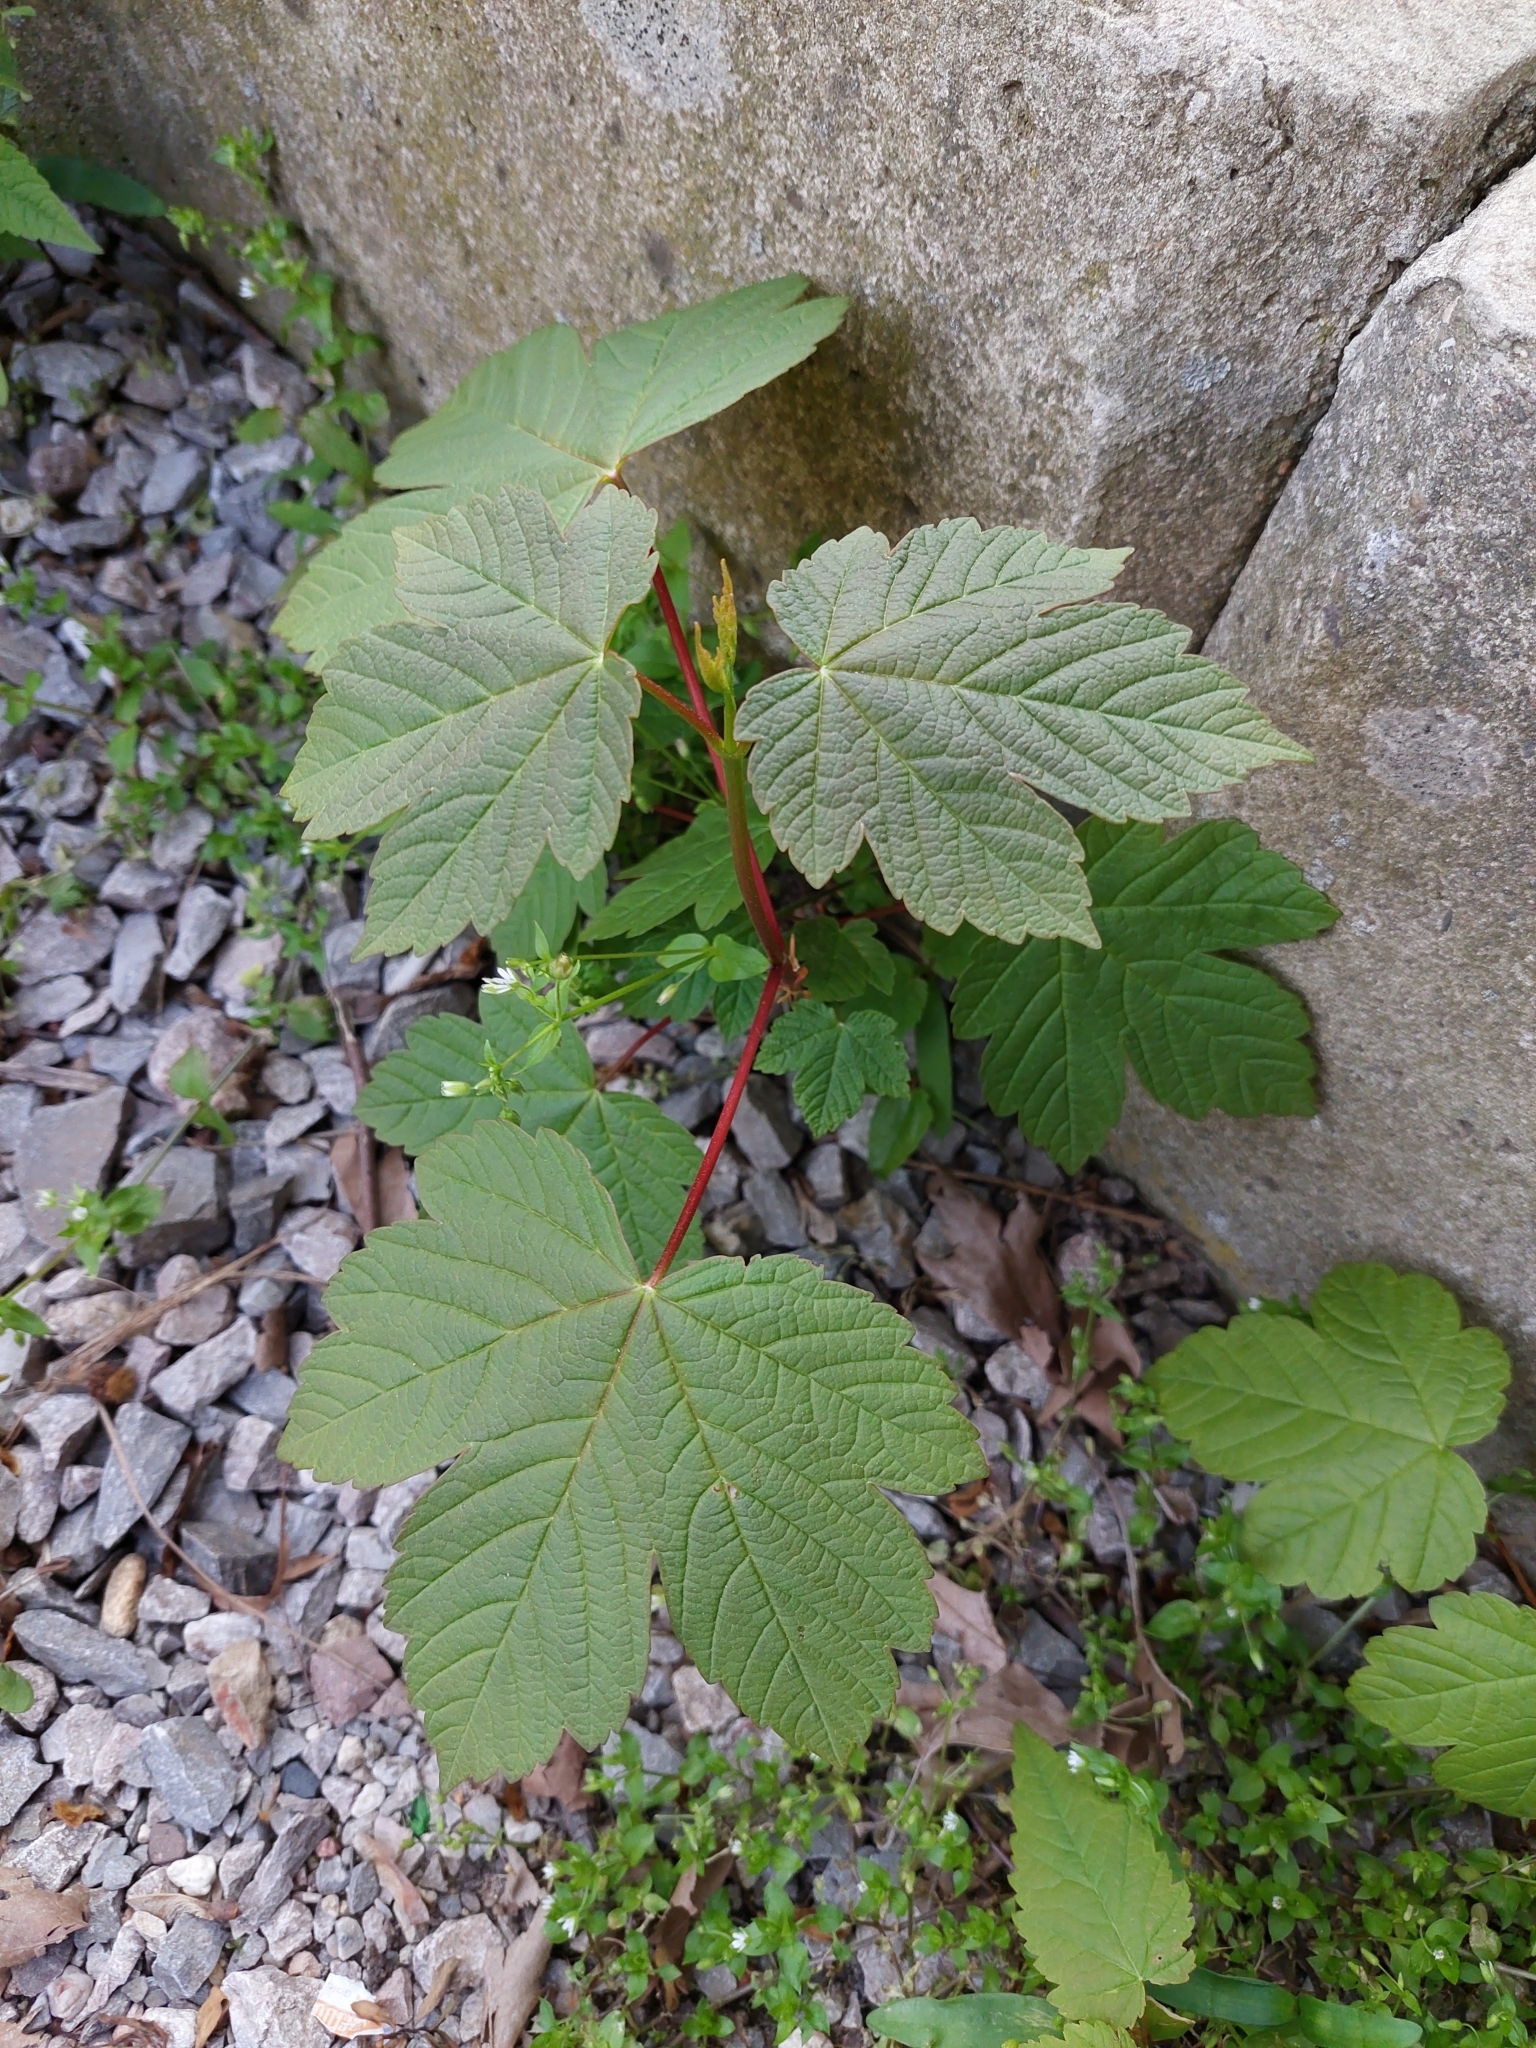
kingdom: Plantae
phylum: Tracheophyta
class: Magnoliopsida
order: Sapindales
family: Sapindaceae
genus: Acer
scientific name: Acer pseudoplatanus
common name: Sycamore
